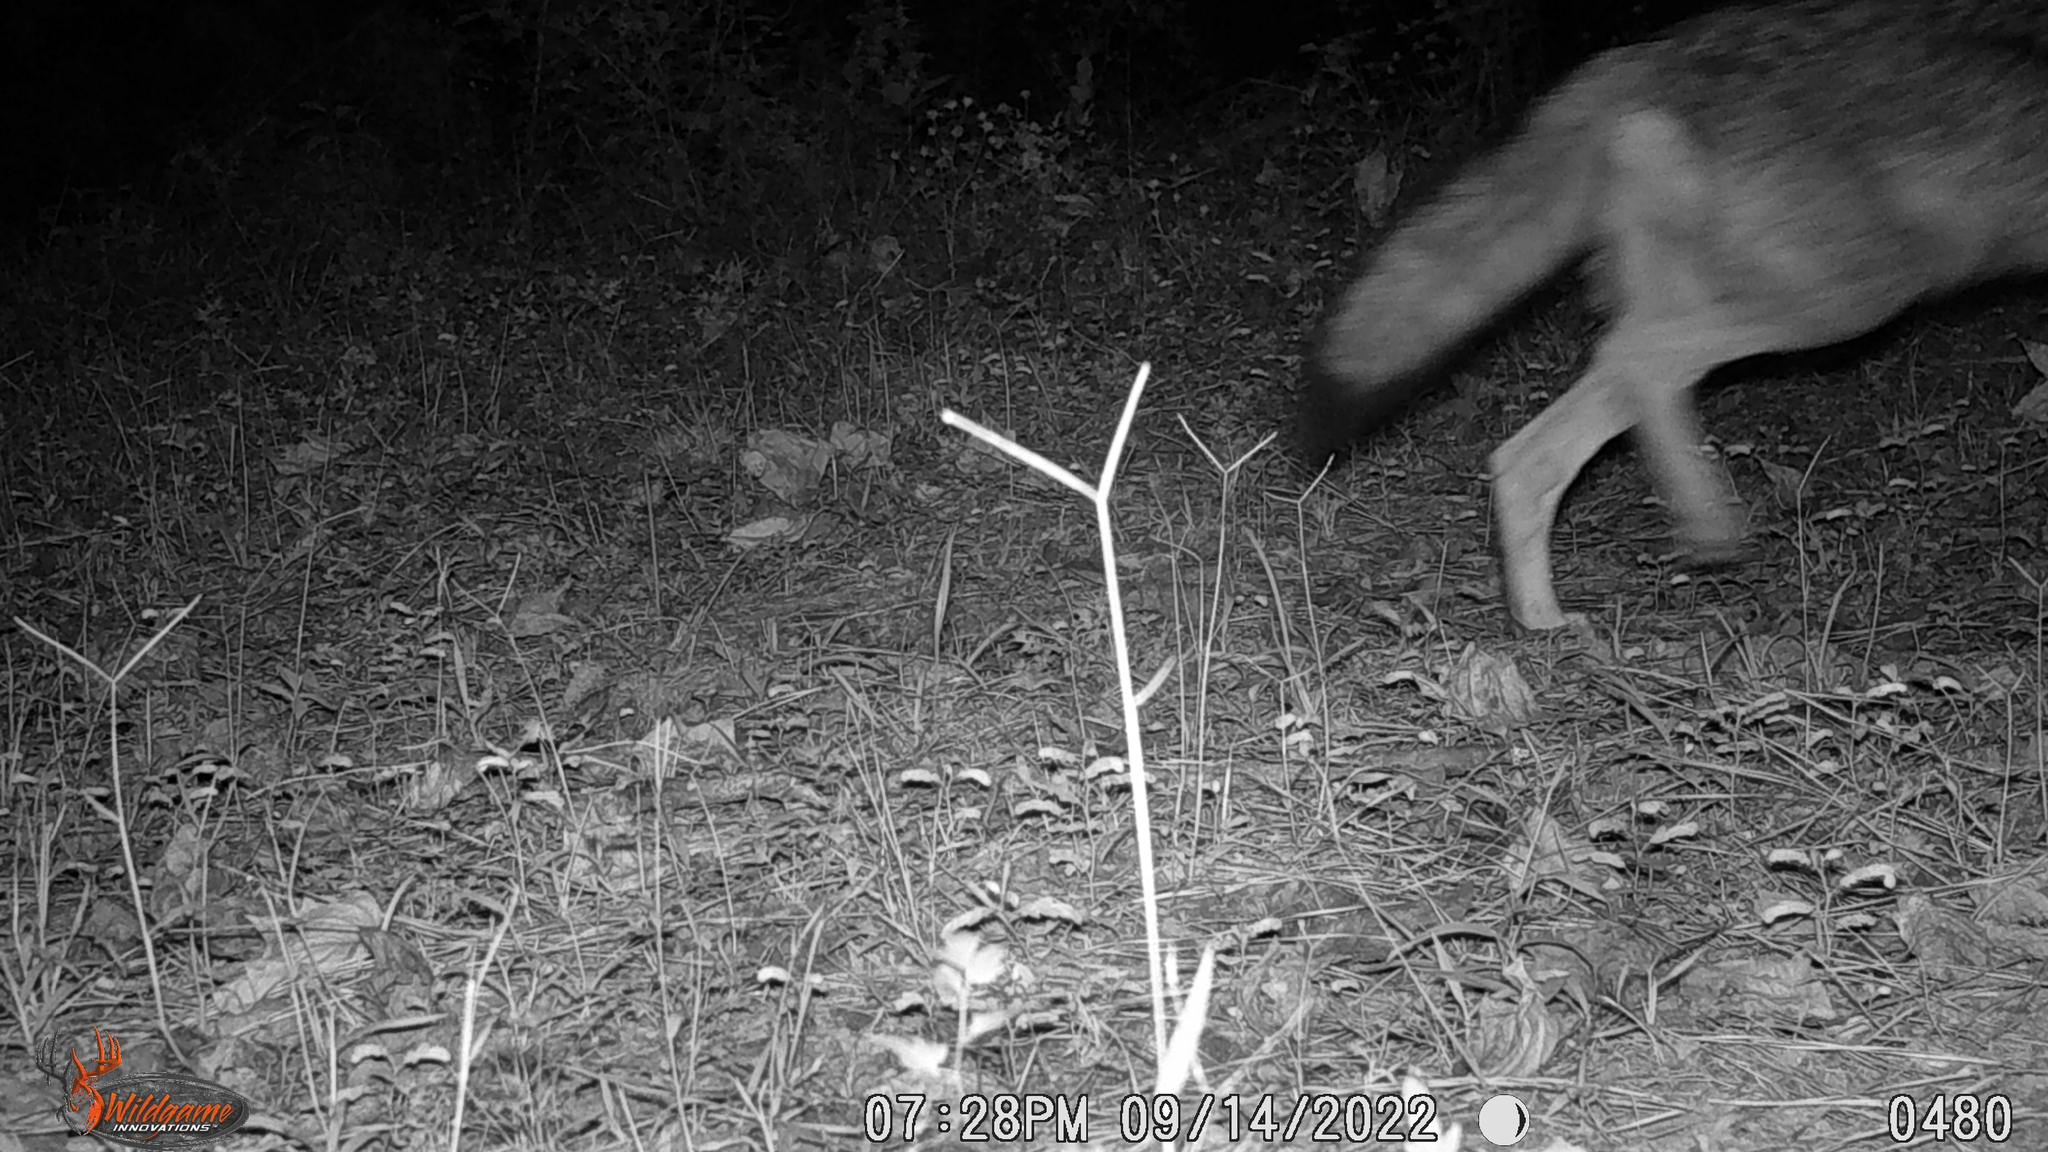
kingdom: Animalia
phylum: Chordata
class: Mammalia
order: Carnivora
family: Canidae
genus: Canis
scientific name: Canis latrans
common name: Coyote
